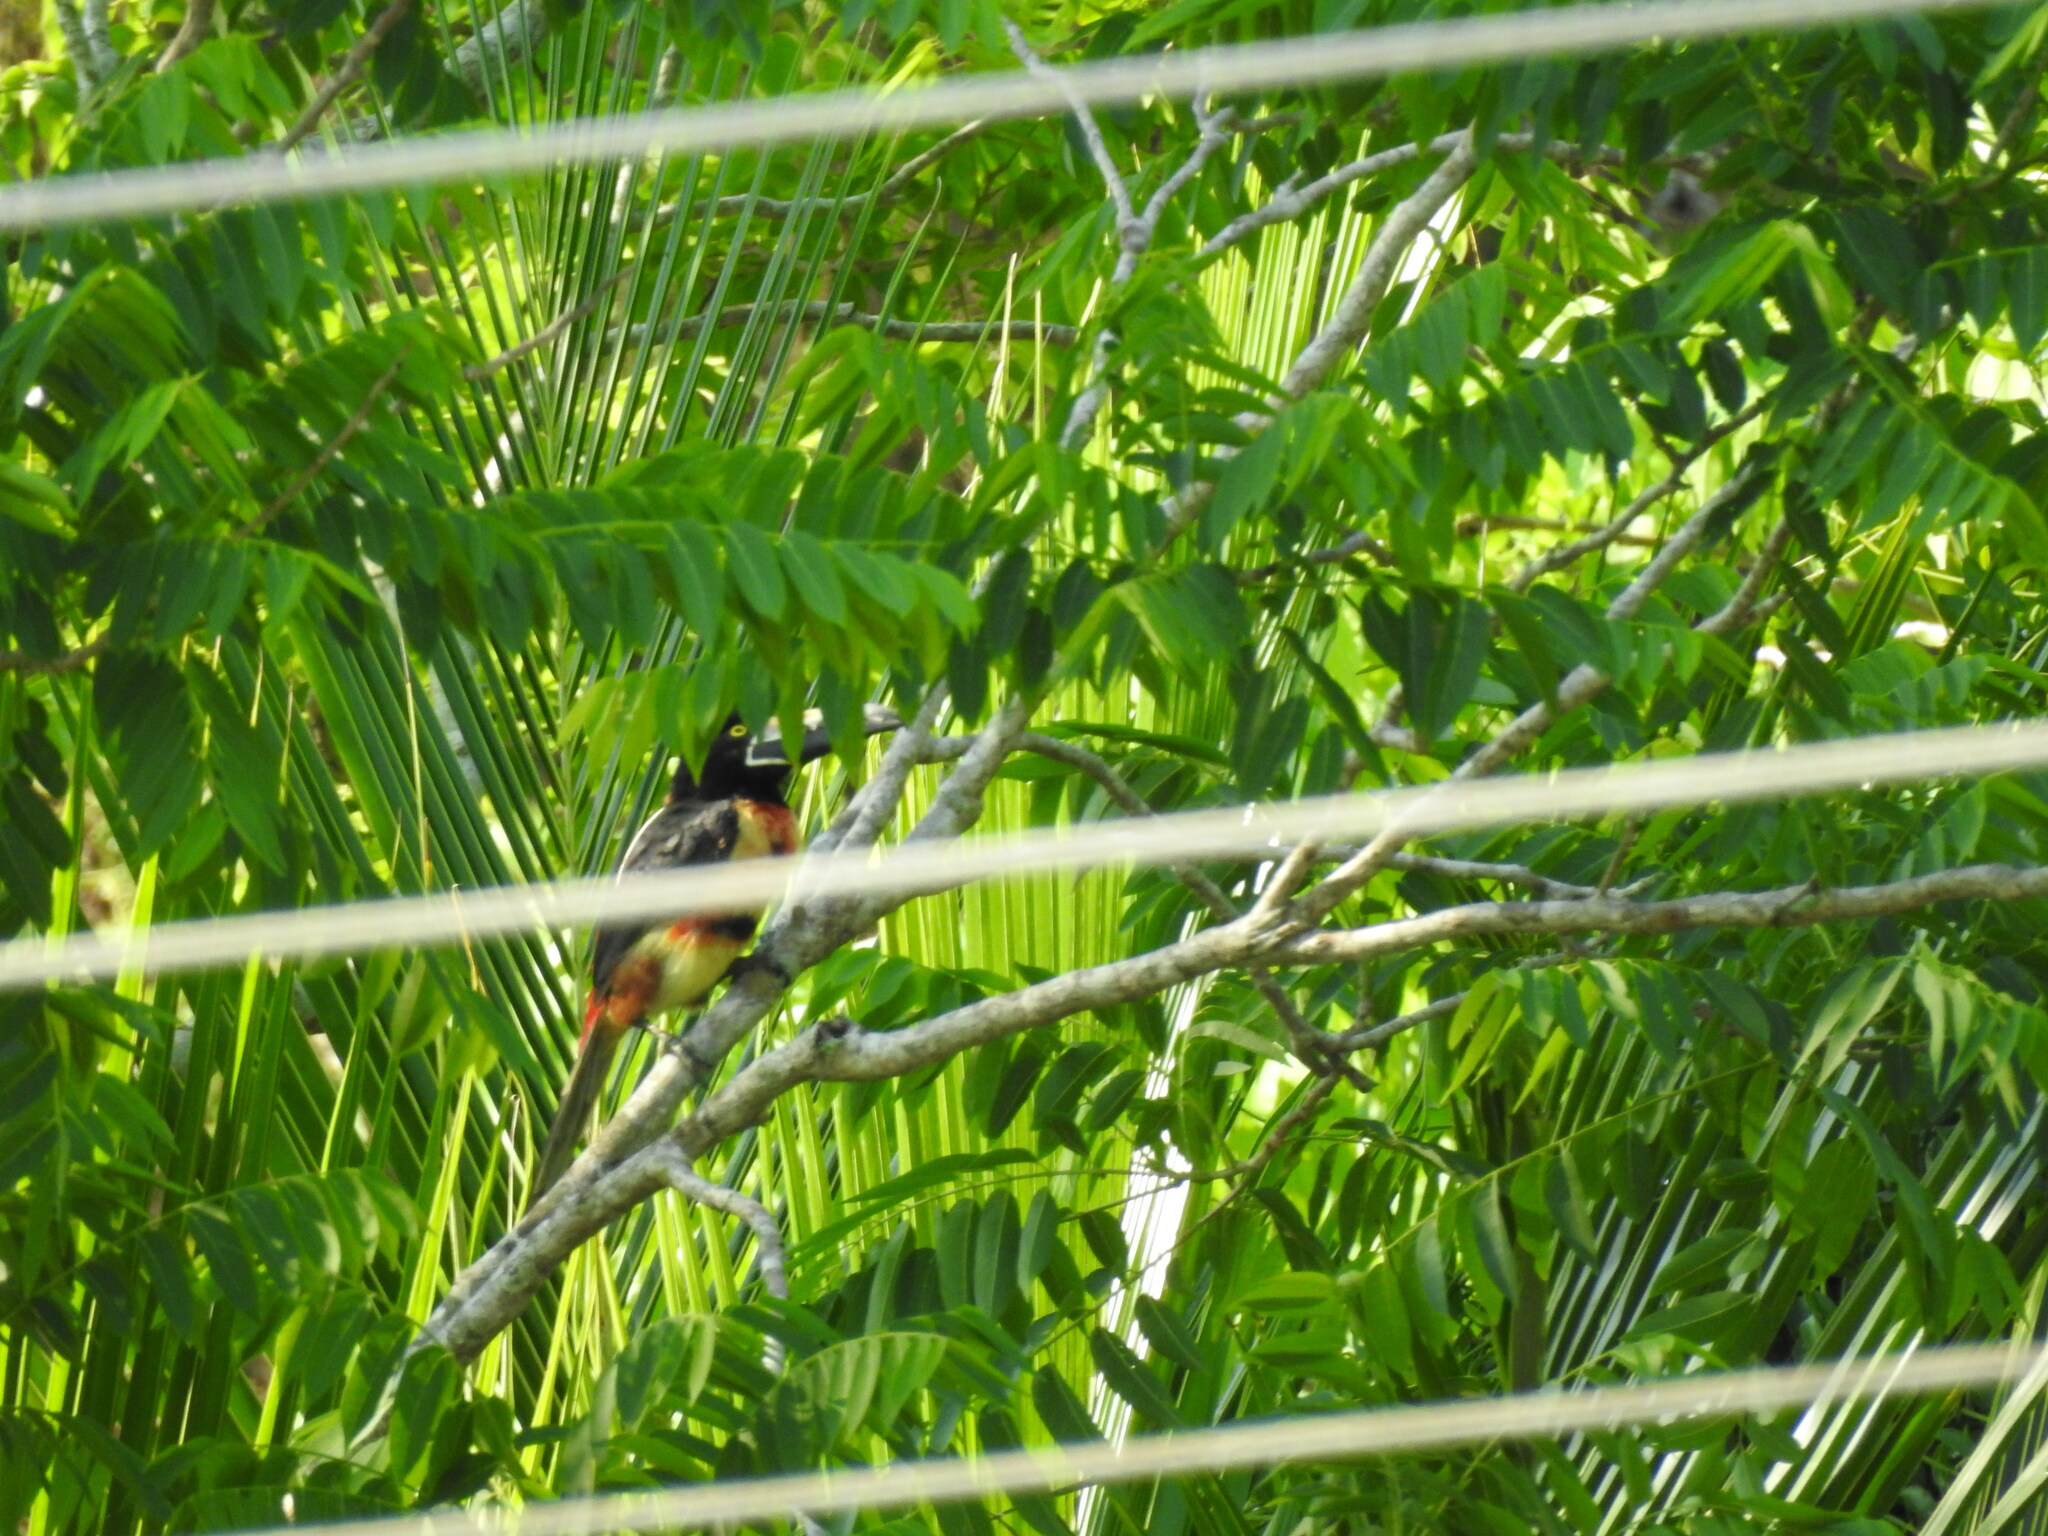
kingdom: Animalia
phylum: Chordata
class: Aves
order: Piciformes
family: Ramphastidae
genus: Pteroglossus
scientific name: Pteroglossus torquatus
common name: Collared aracari
